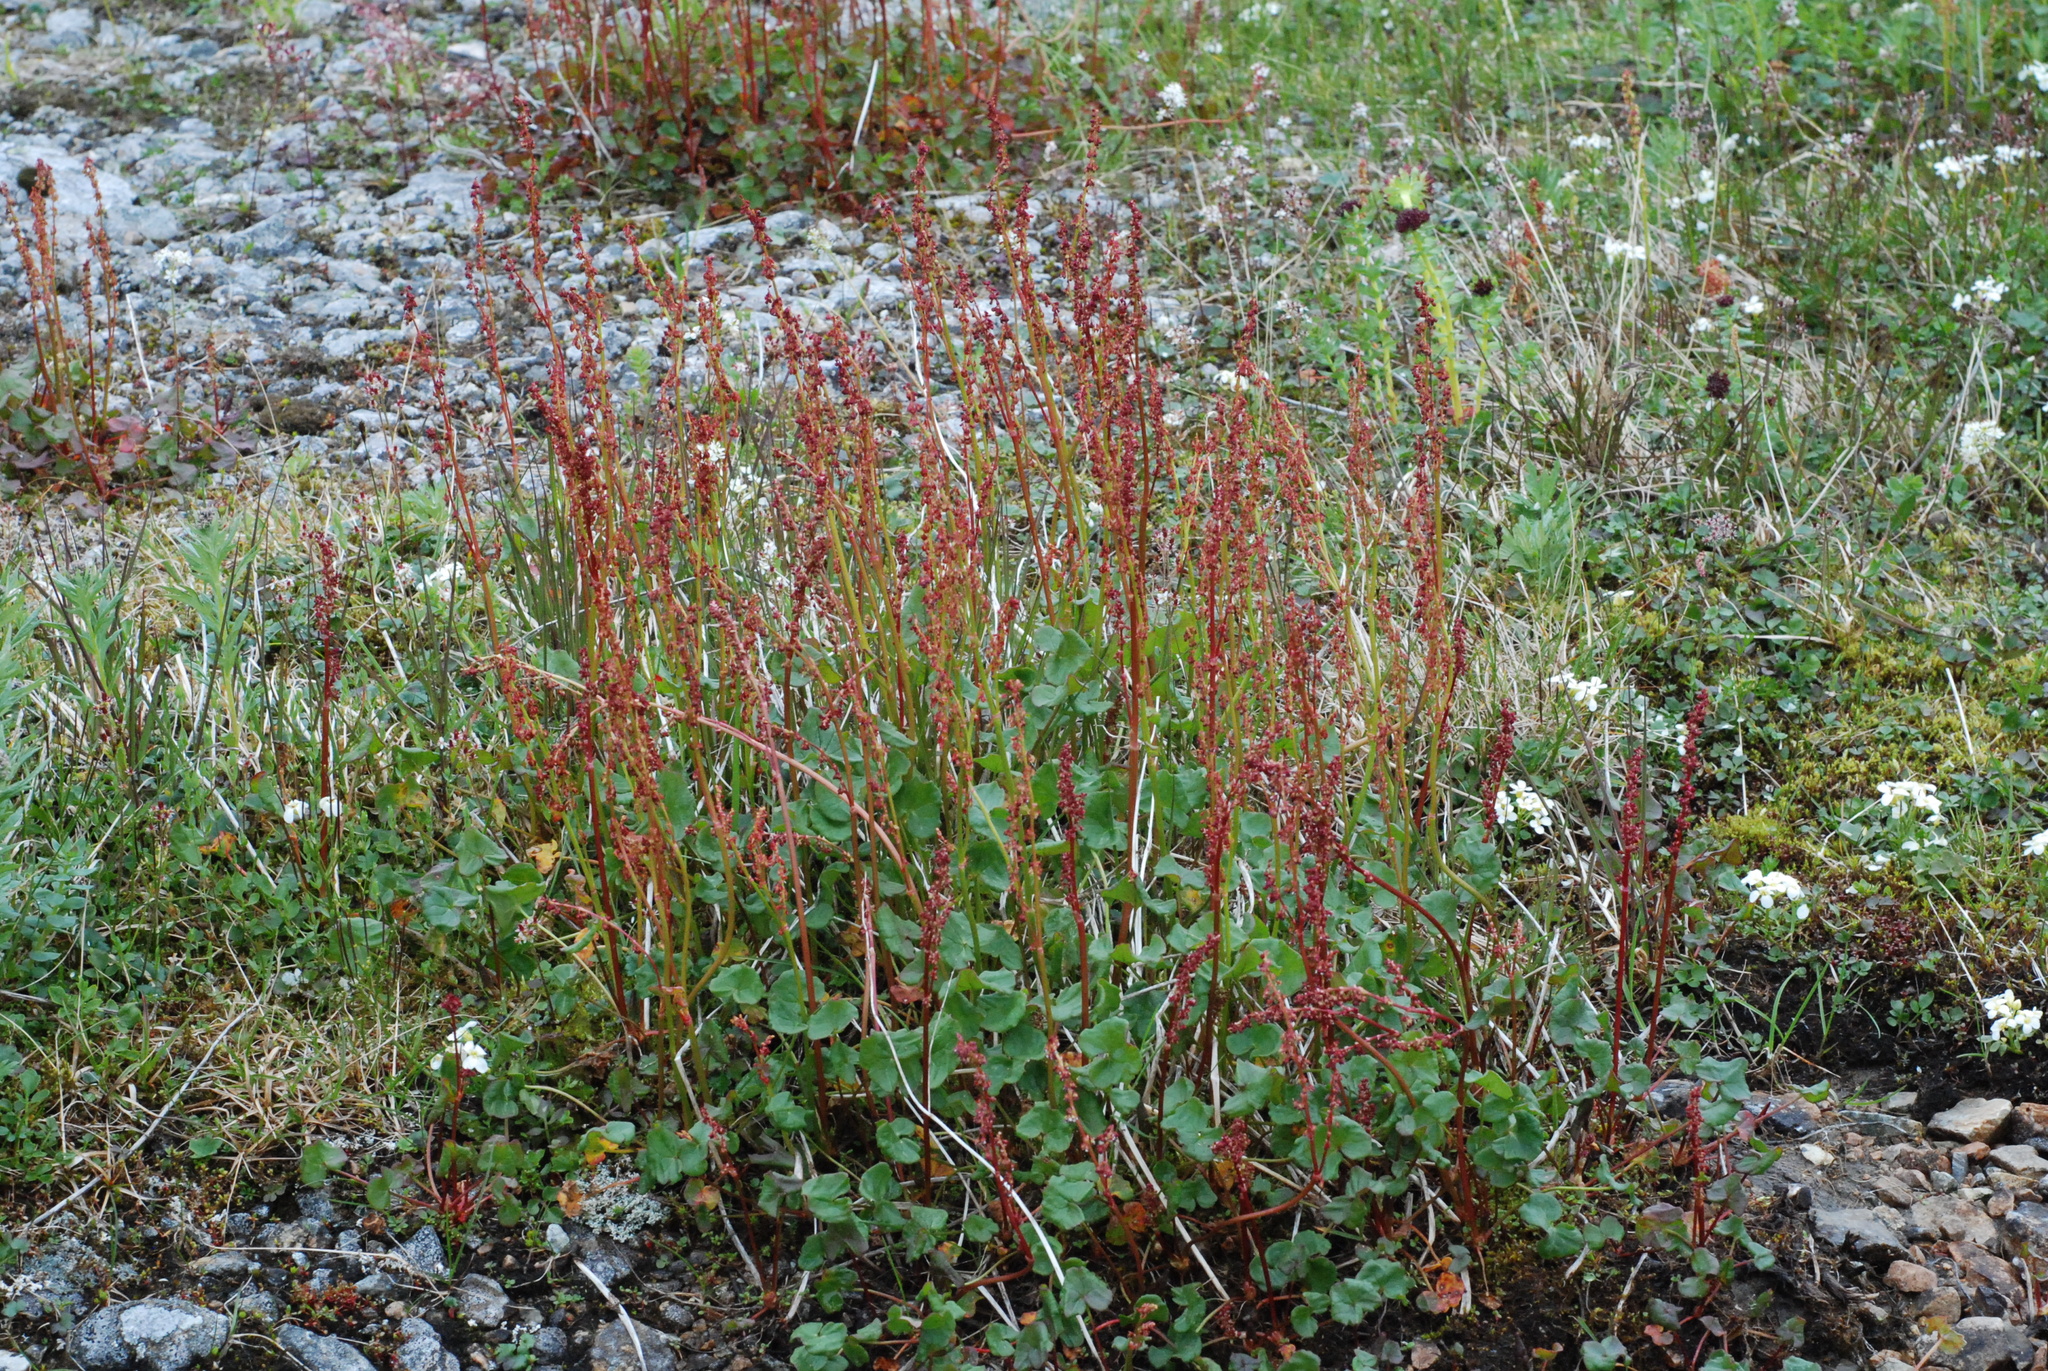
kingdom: Plantae
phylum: Tracheophyta
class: Magnoliopsida
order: Caryophyllales
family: Polygonaceae
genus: Oxyria
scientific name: Oxyria digyna
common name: Alpine mountain-sorrel
